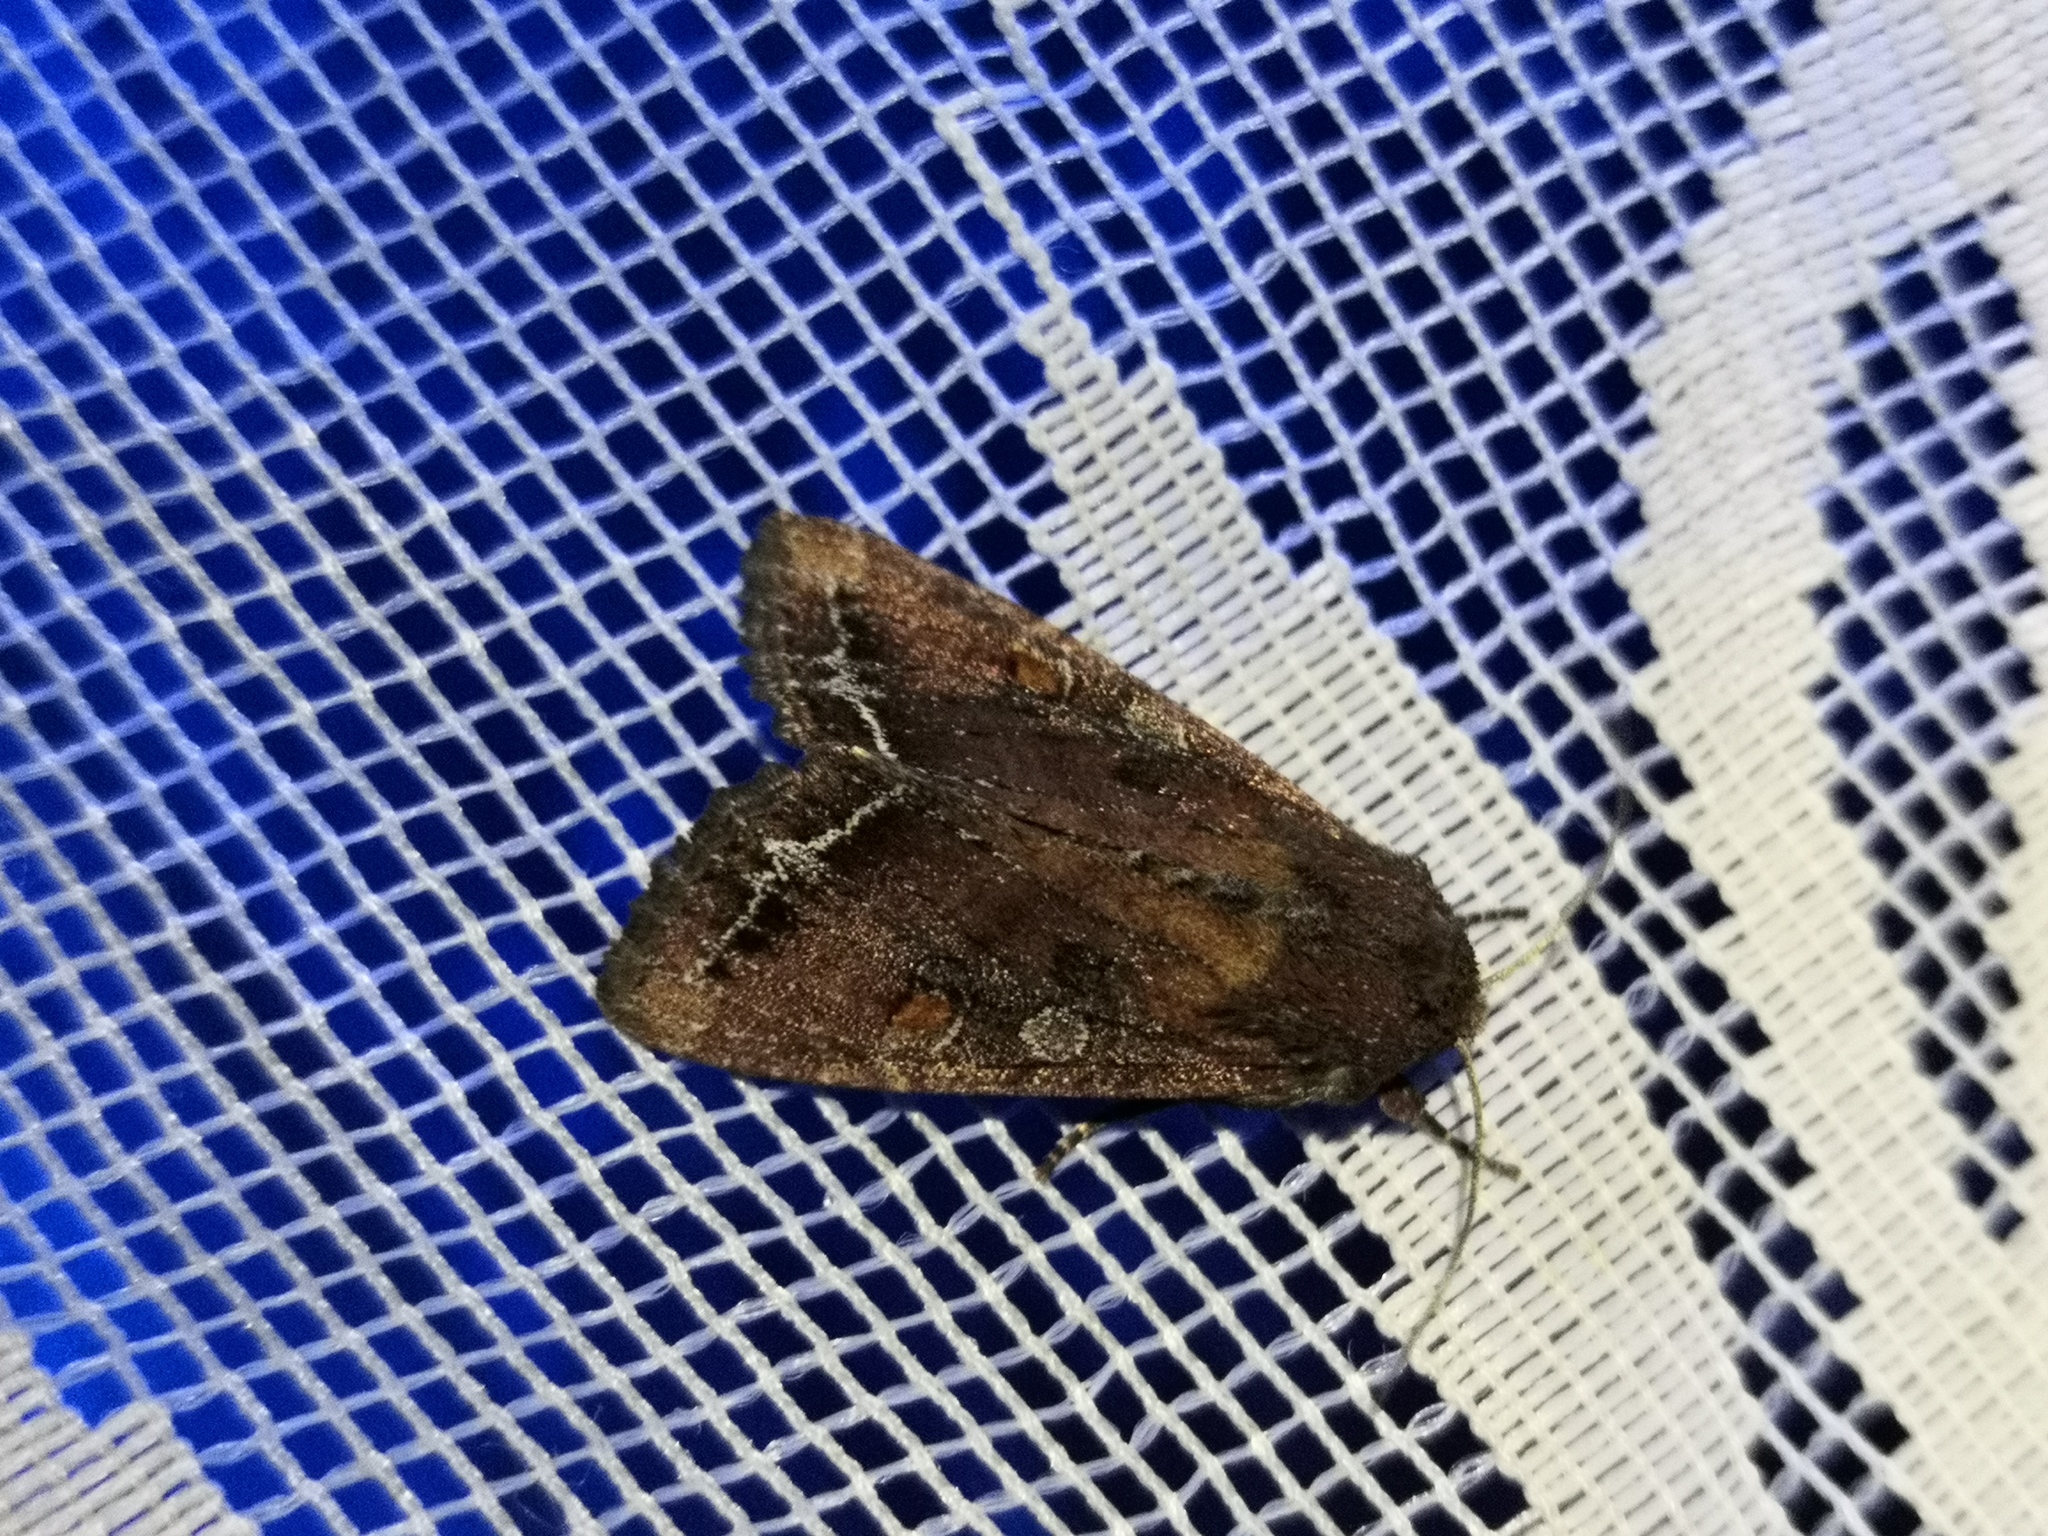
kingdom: Animalia
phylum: Arthropoda
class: Insecta
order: Lepidoptera
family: Noctuidae
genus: Lacanobia
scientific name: Lacanobia oleracea
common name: Bright-line brown-eye
